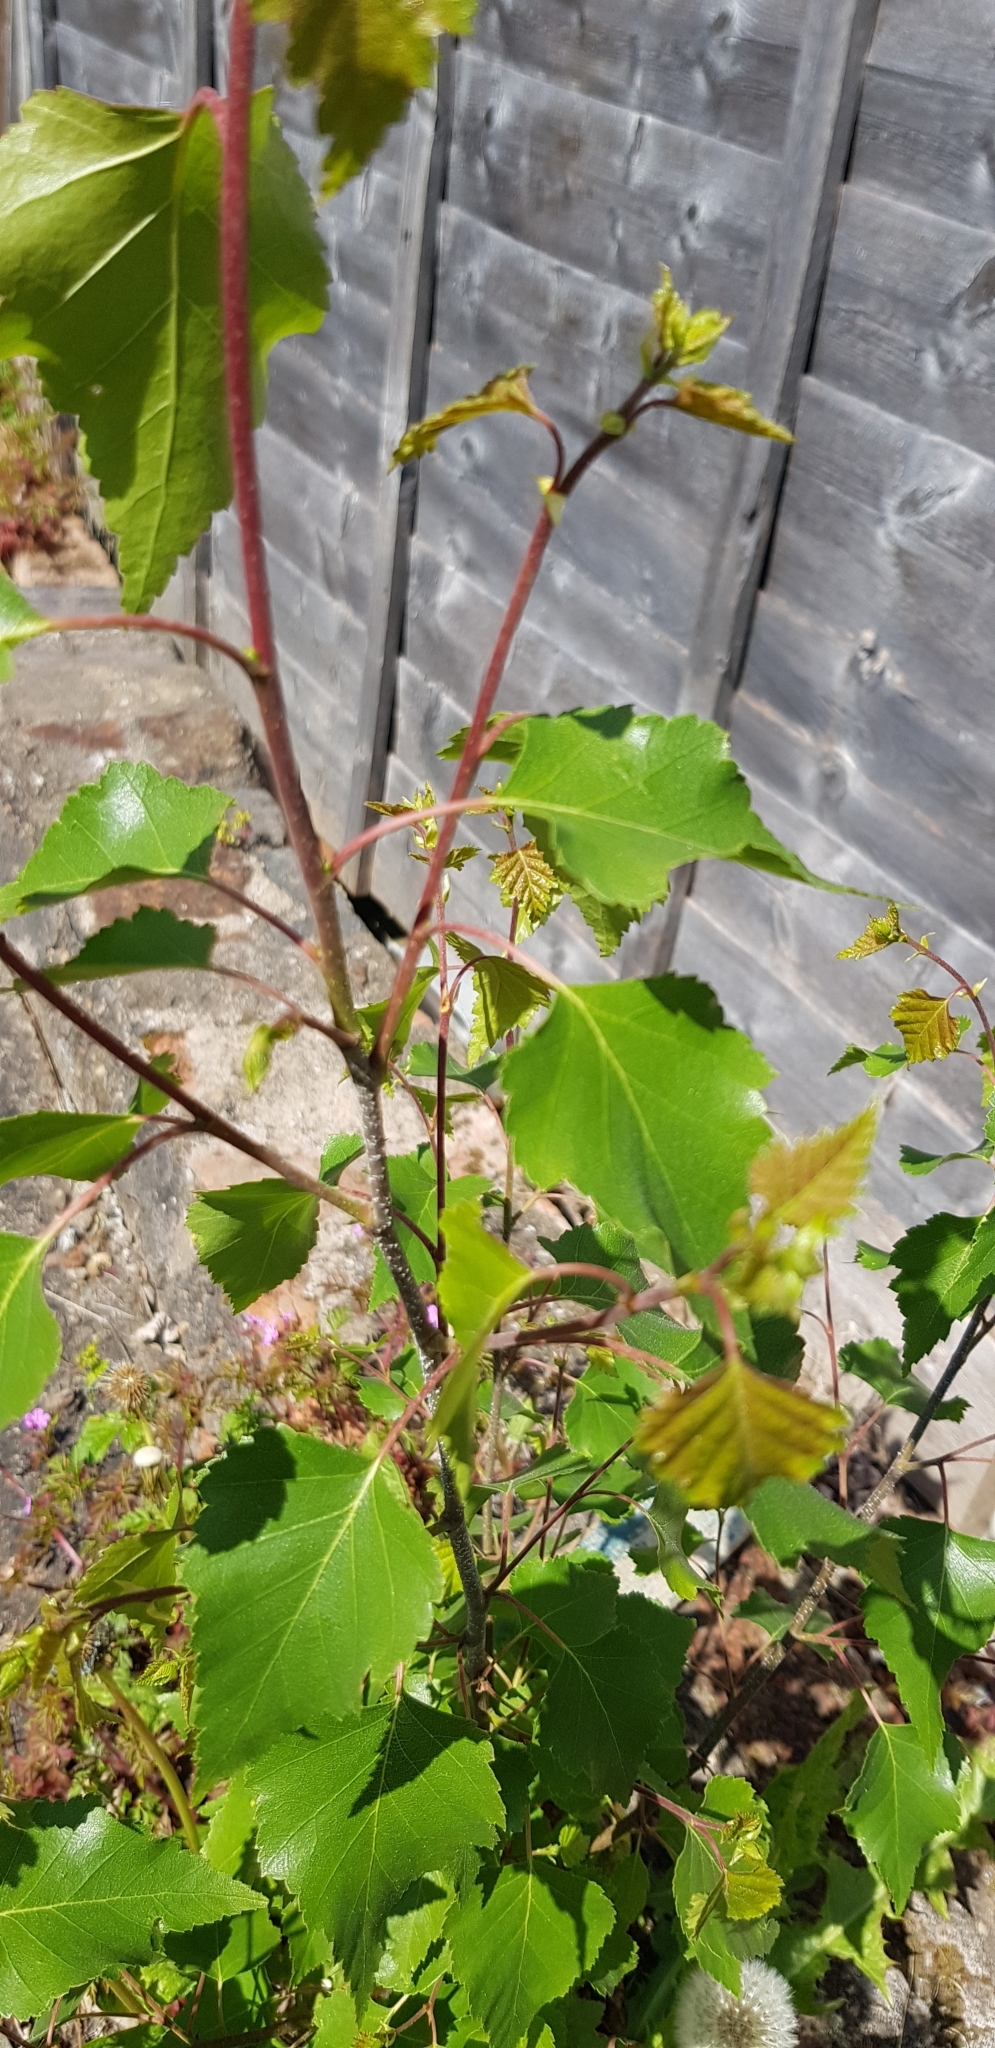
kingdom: Plantae
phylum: Tracheophyta
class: Magnoliopsida
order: Fagales
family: Betulaceae
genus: Betula
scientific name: Betula pendula
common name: Silver birch
